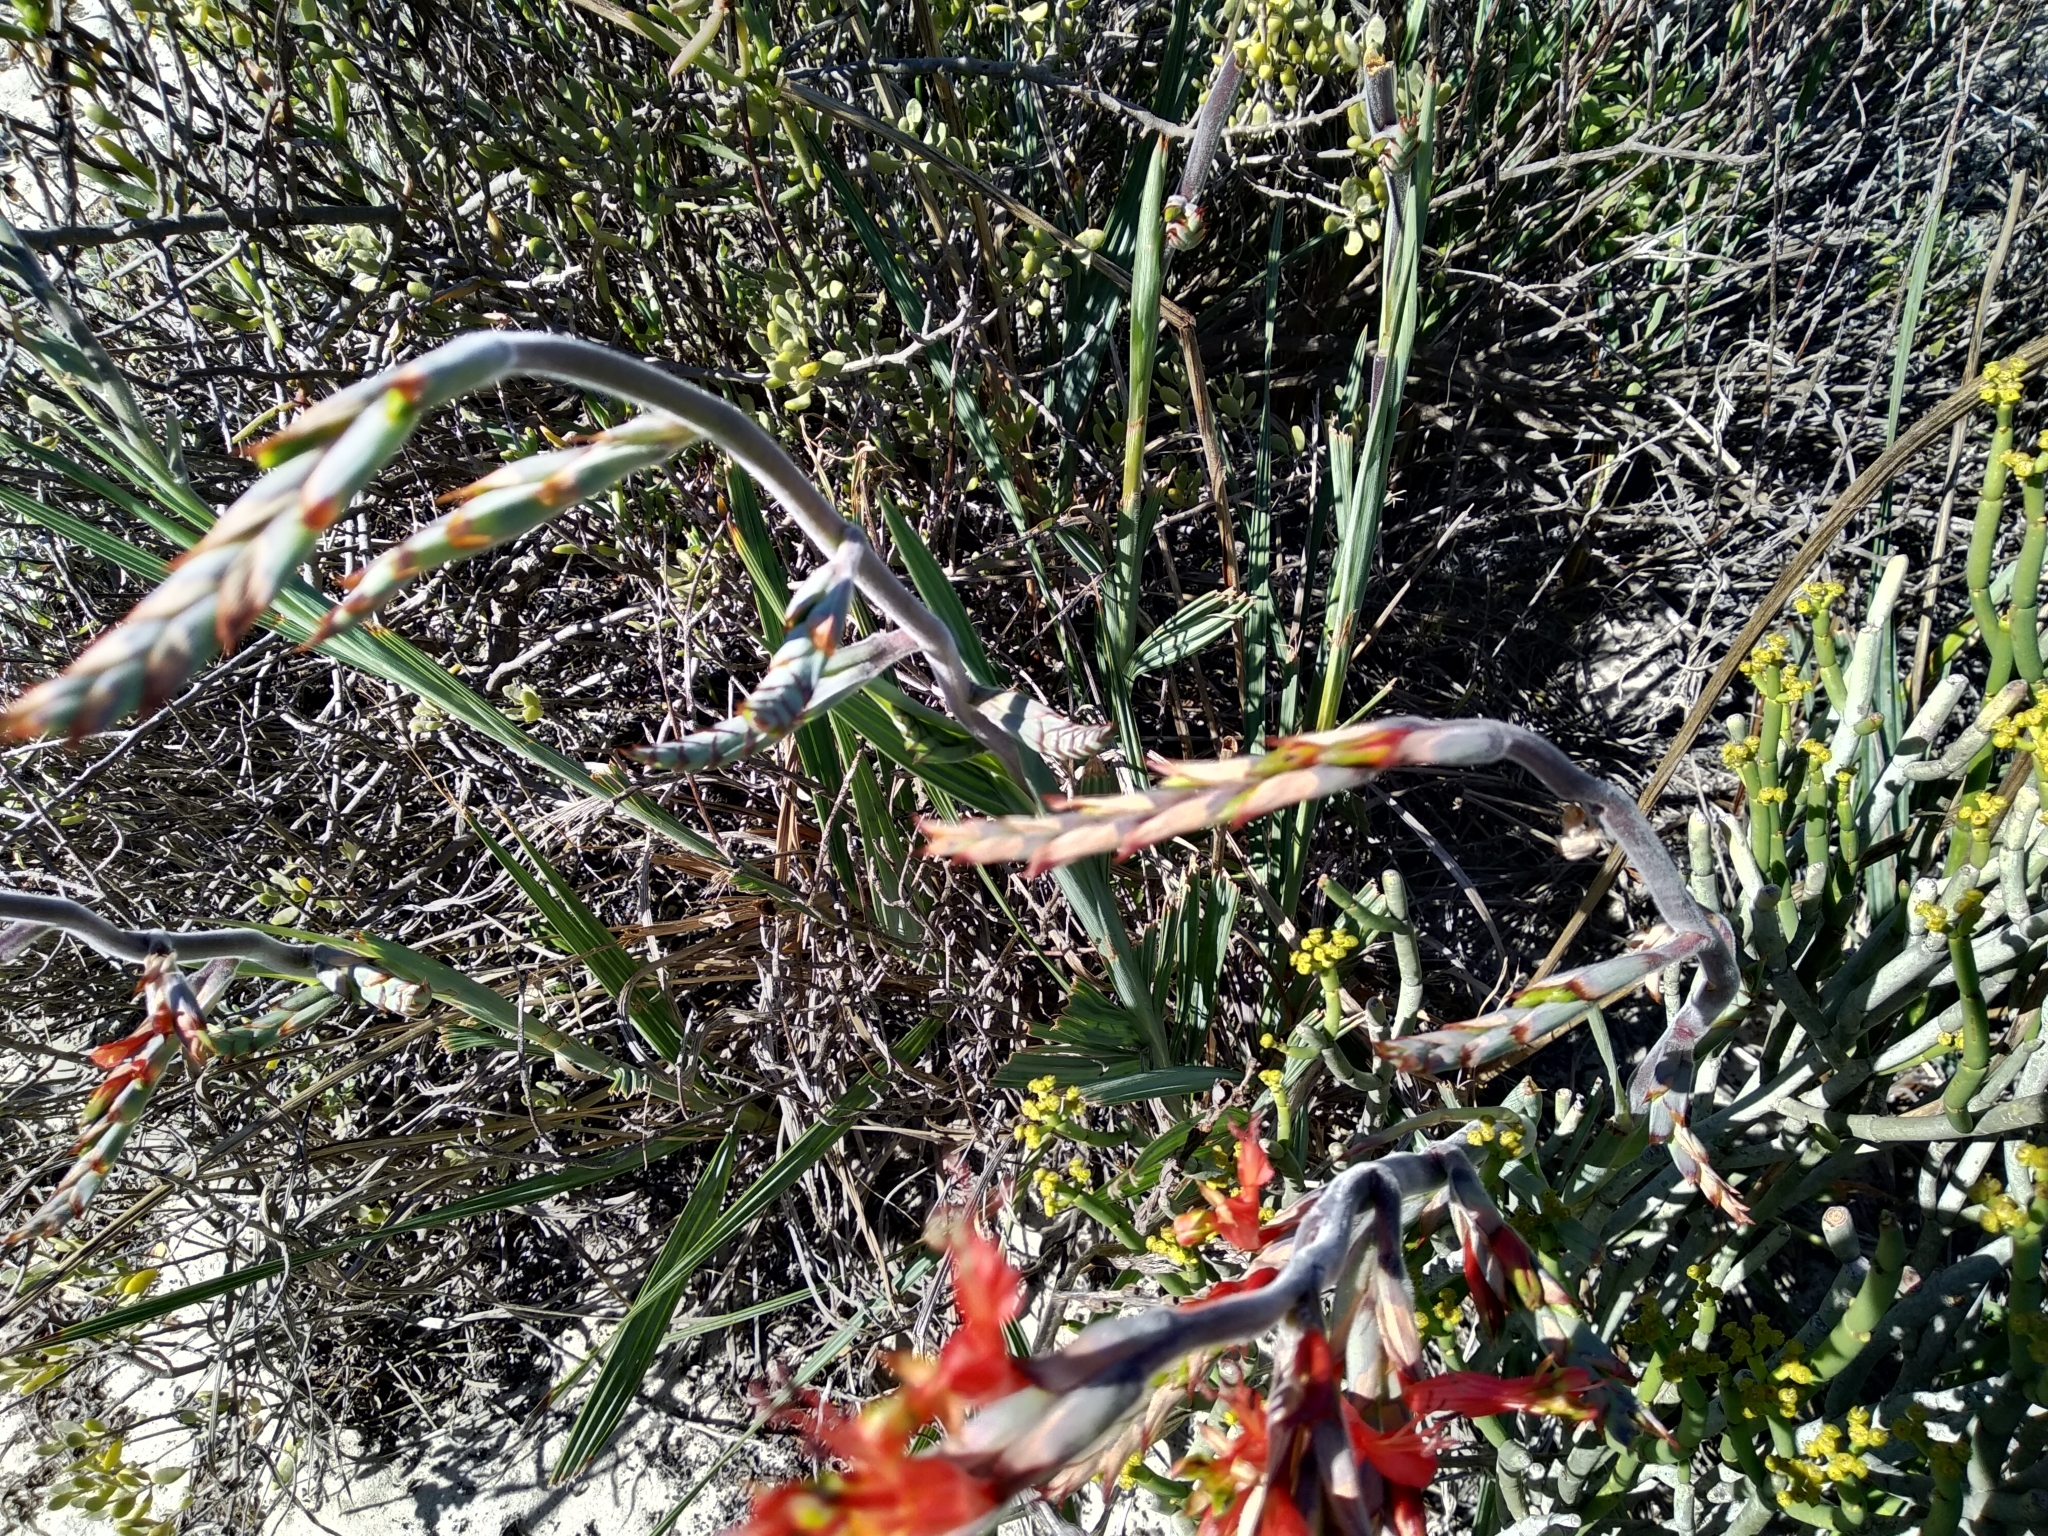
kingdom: Plantae
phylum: Tracheophyta
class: Liliopsida
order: Asparagales
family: Iridaceae
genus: Babiana
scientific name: Babiana hirsuta
